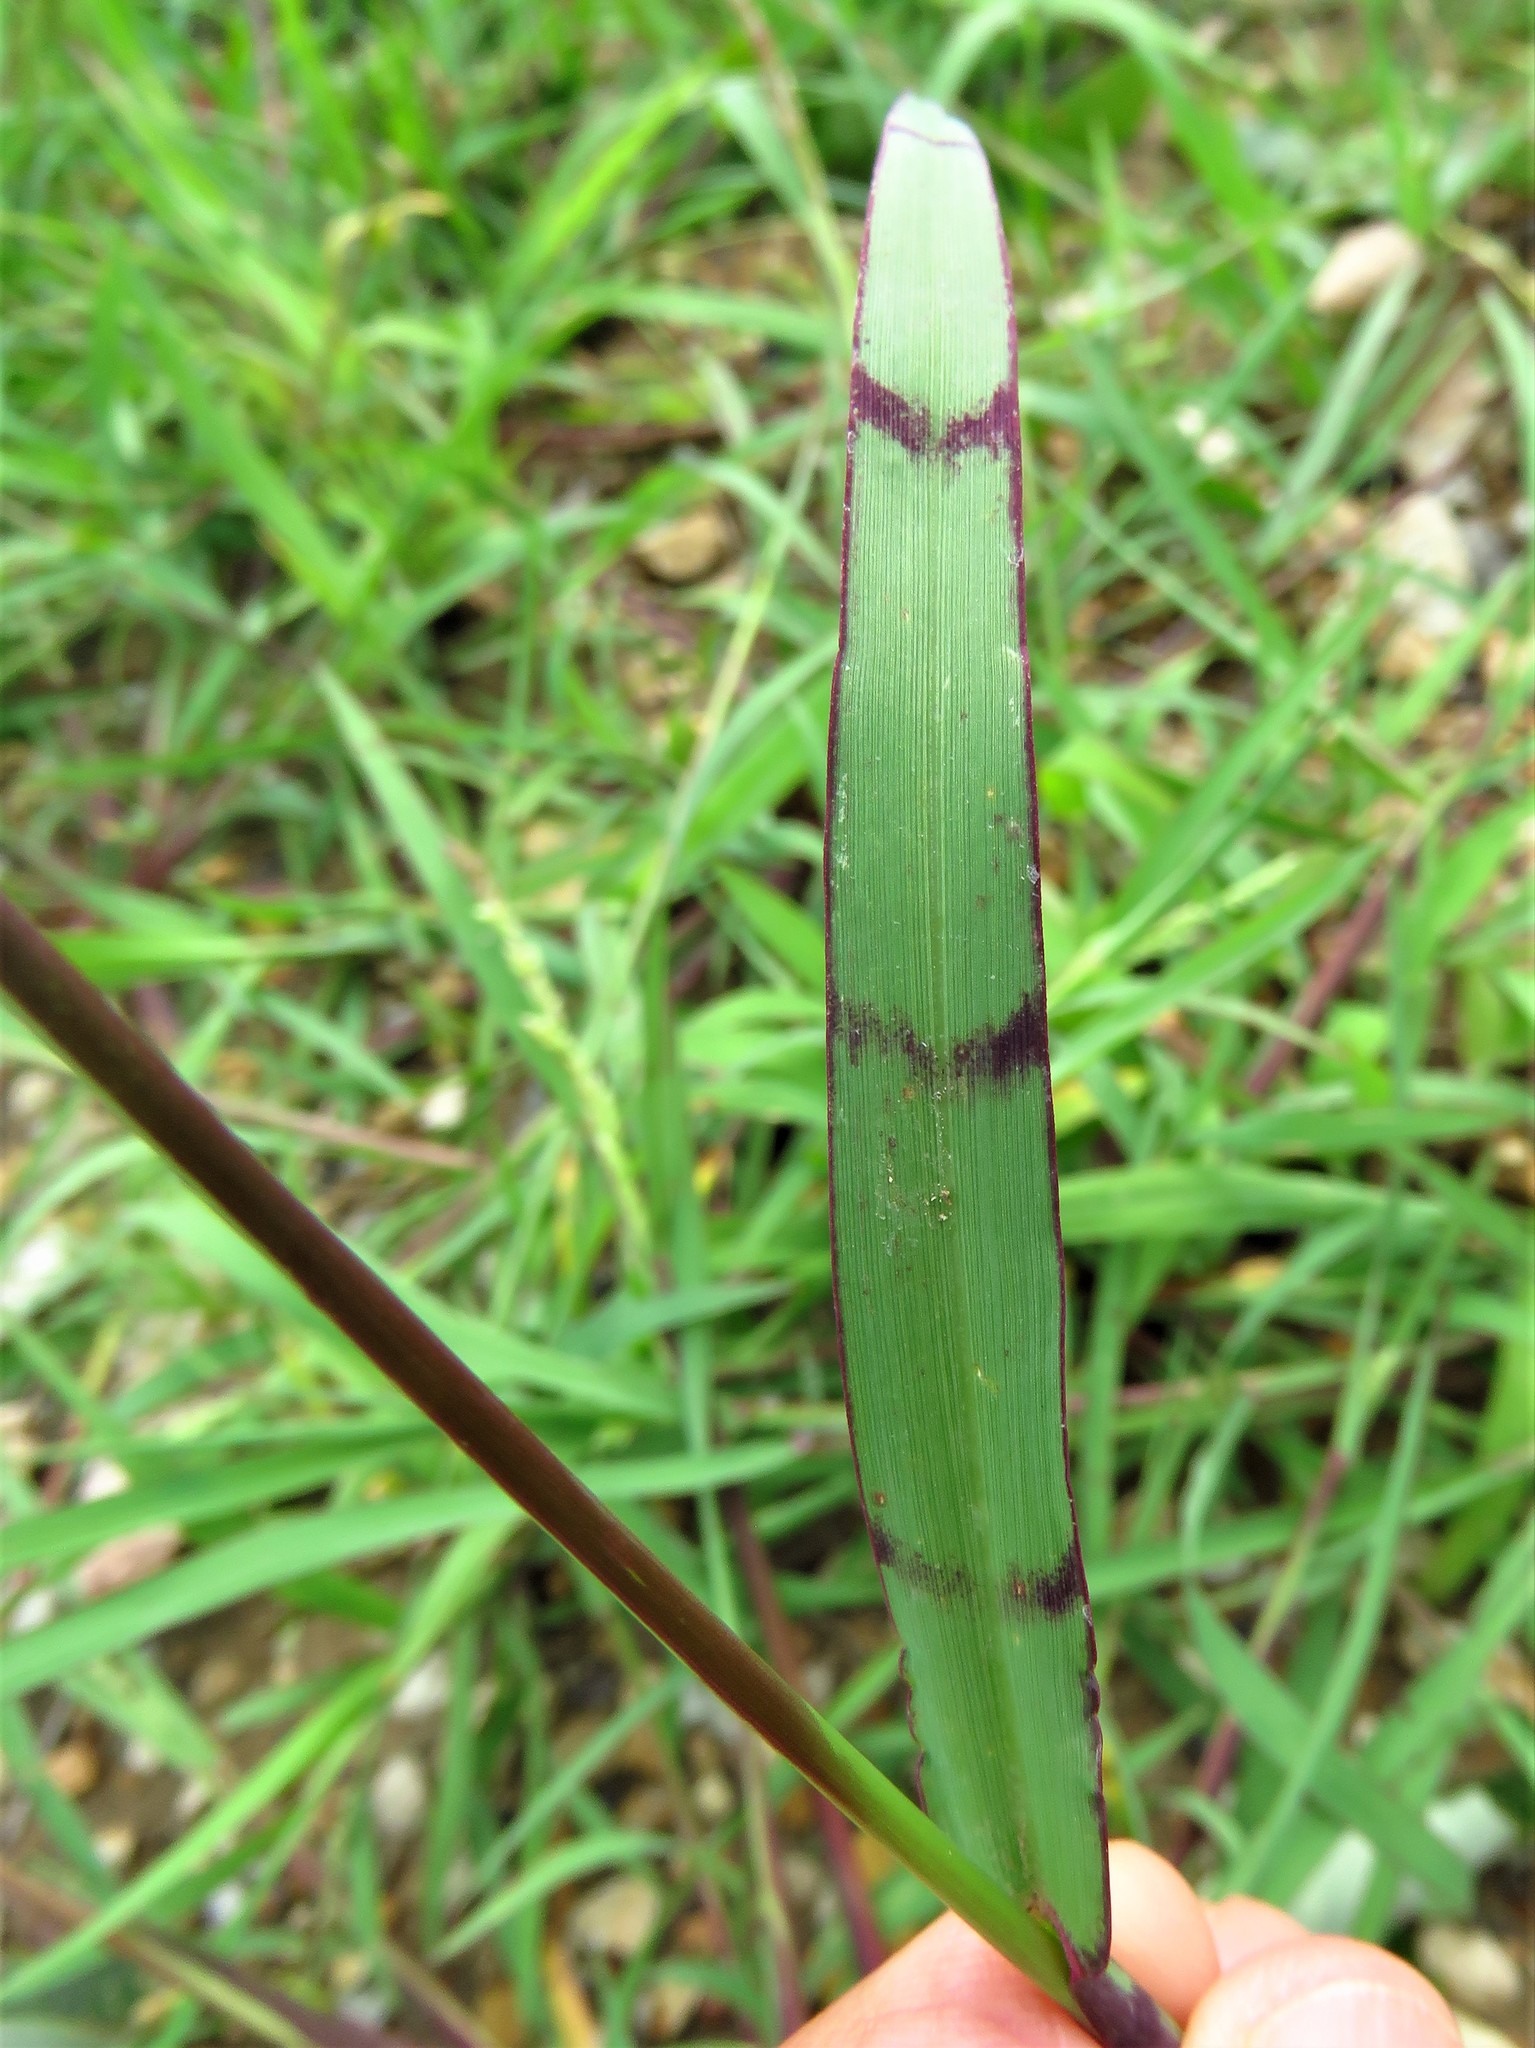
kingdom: Plantae
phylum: Tracheophyta
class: Liliopsida
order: Poales
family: Poaceae
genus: Echinochloa
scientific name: Echinochloa colonum
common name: Jungle rice
